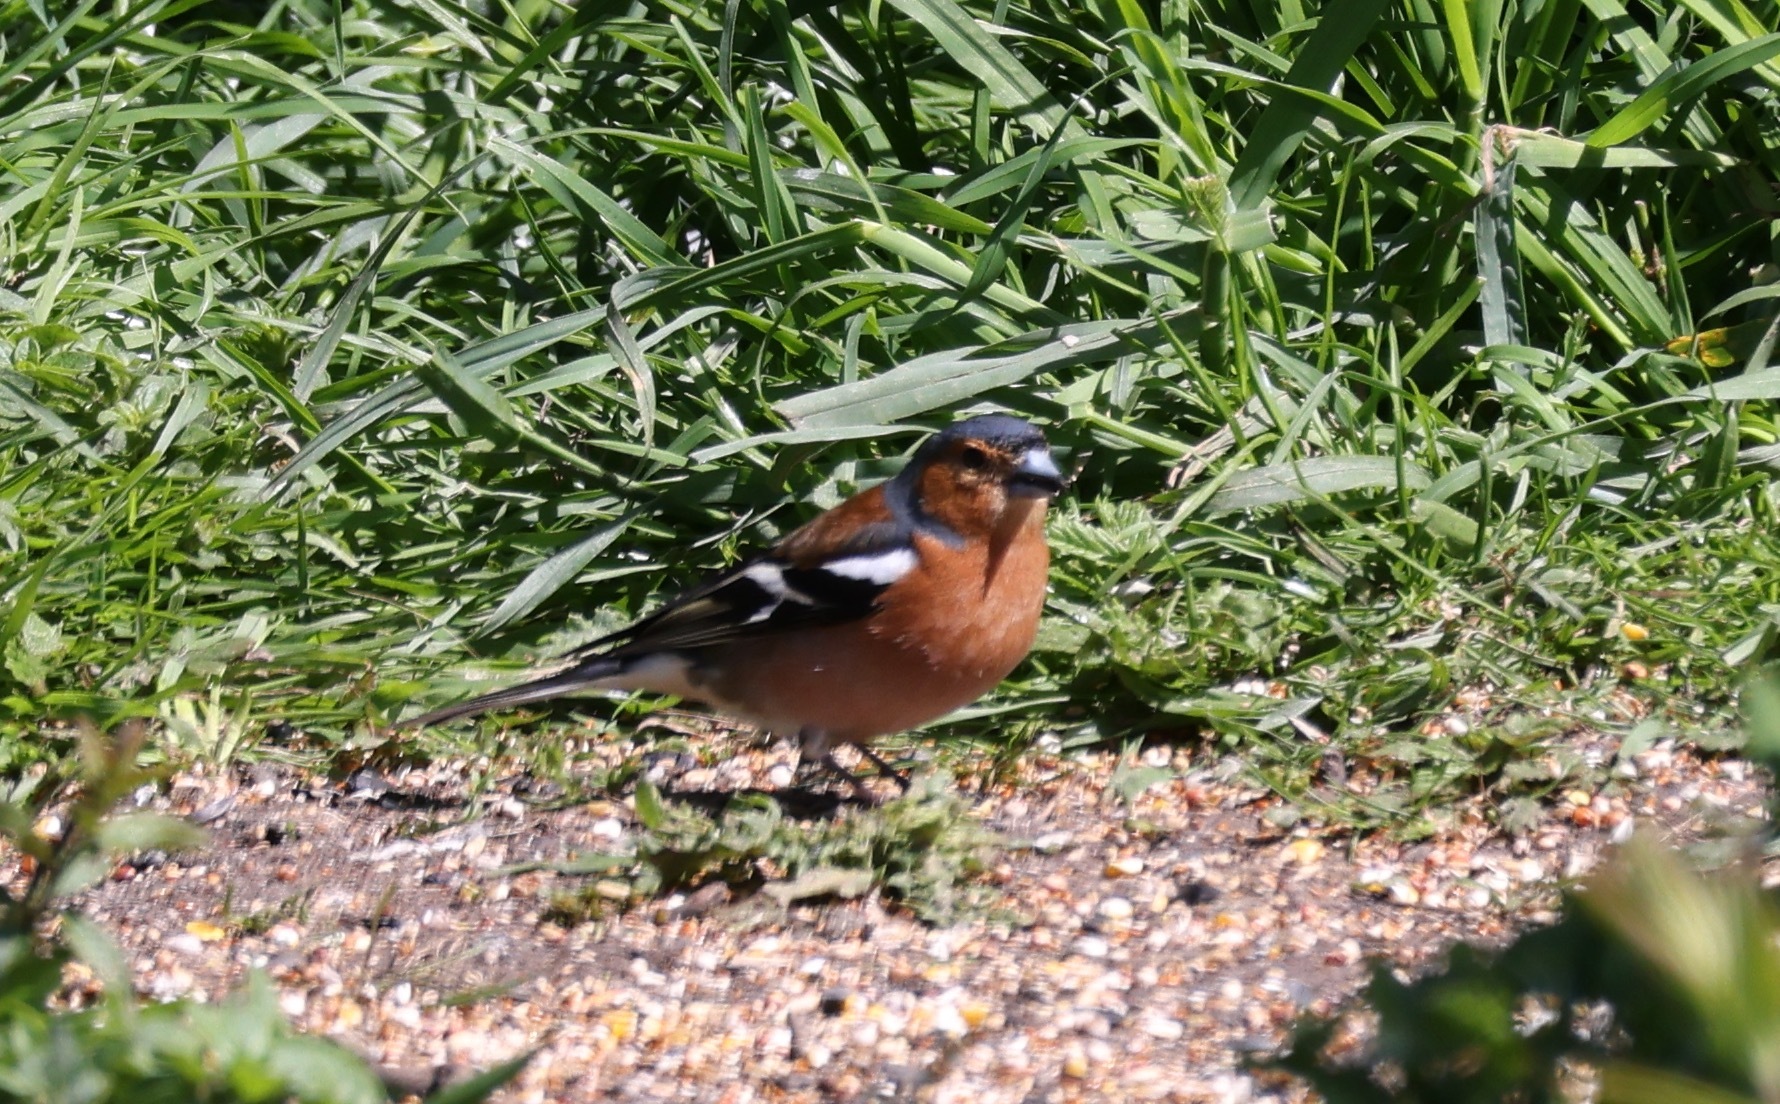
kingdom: Animalia
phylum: Chordata
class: Aves
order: Passeriformes
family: Fringillidae
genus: Fringilla
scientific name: Fringilla coelebs
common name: Common chaffinch
